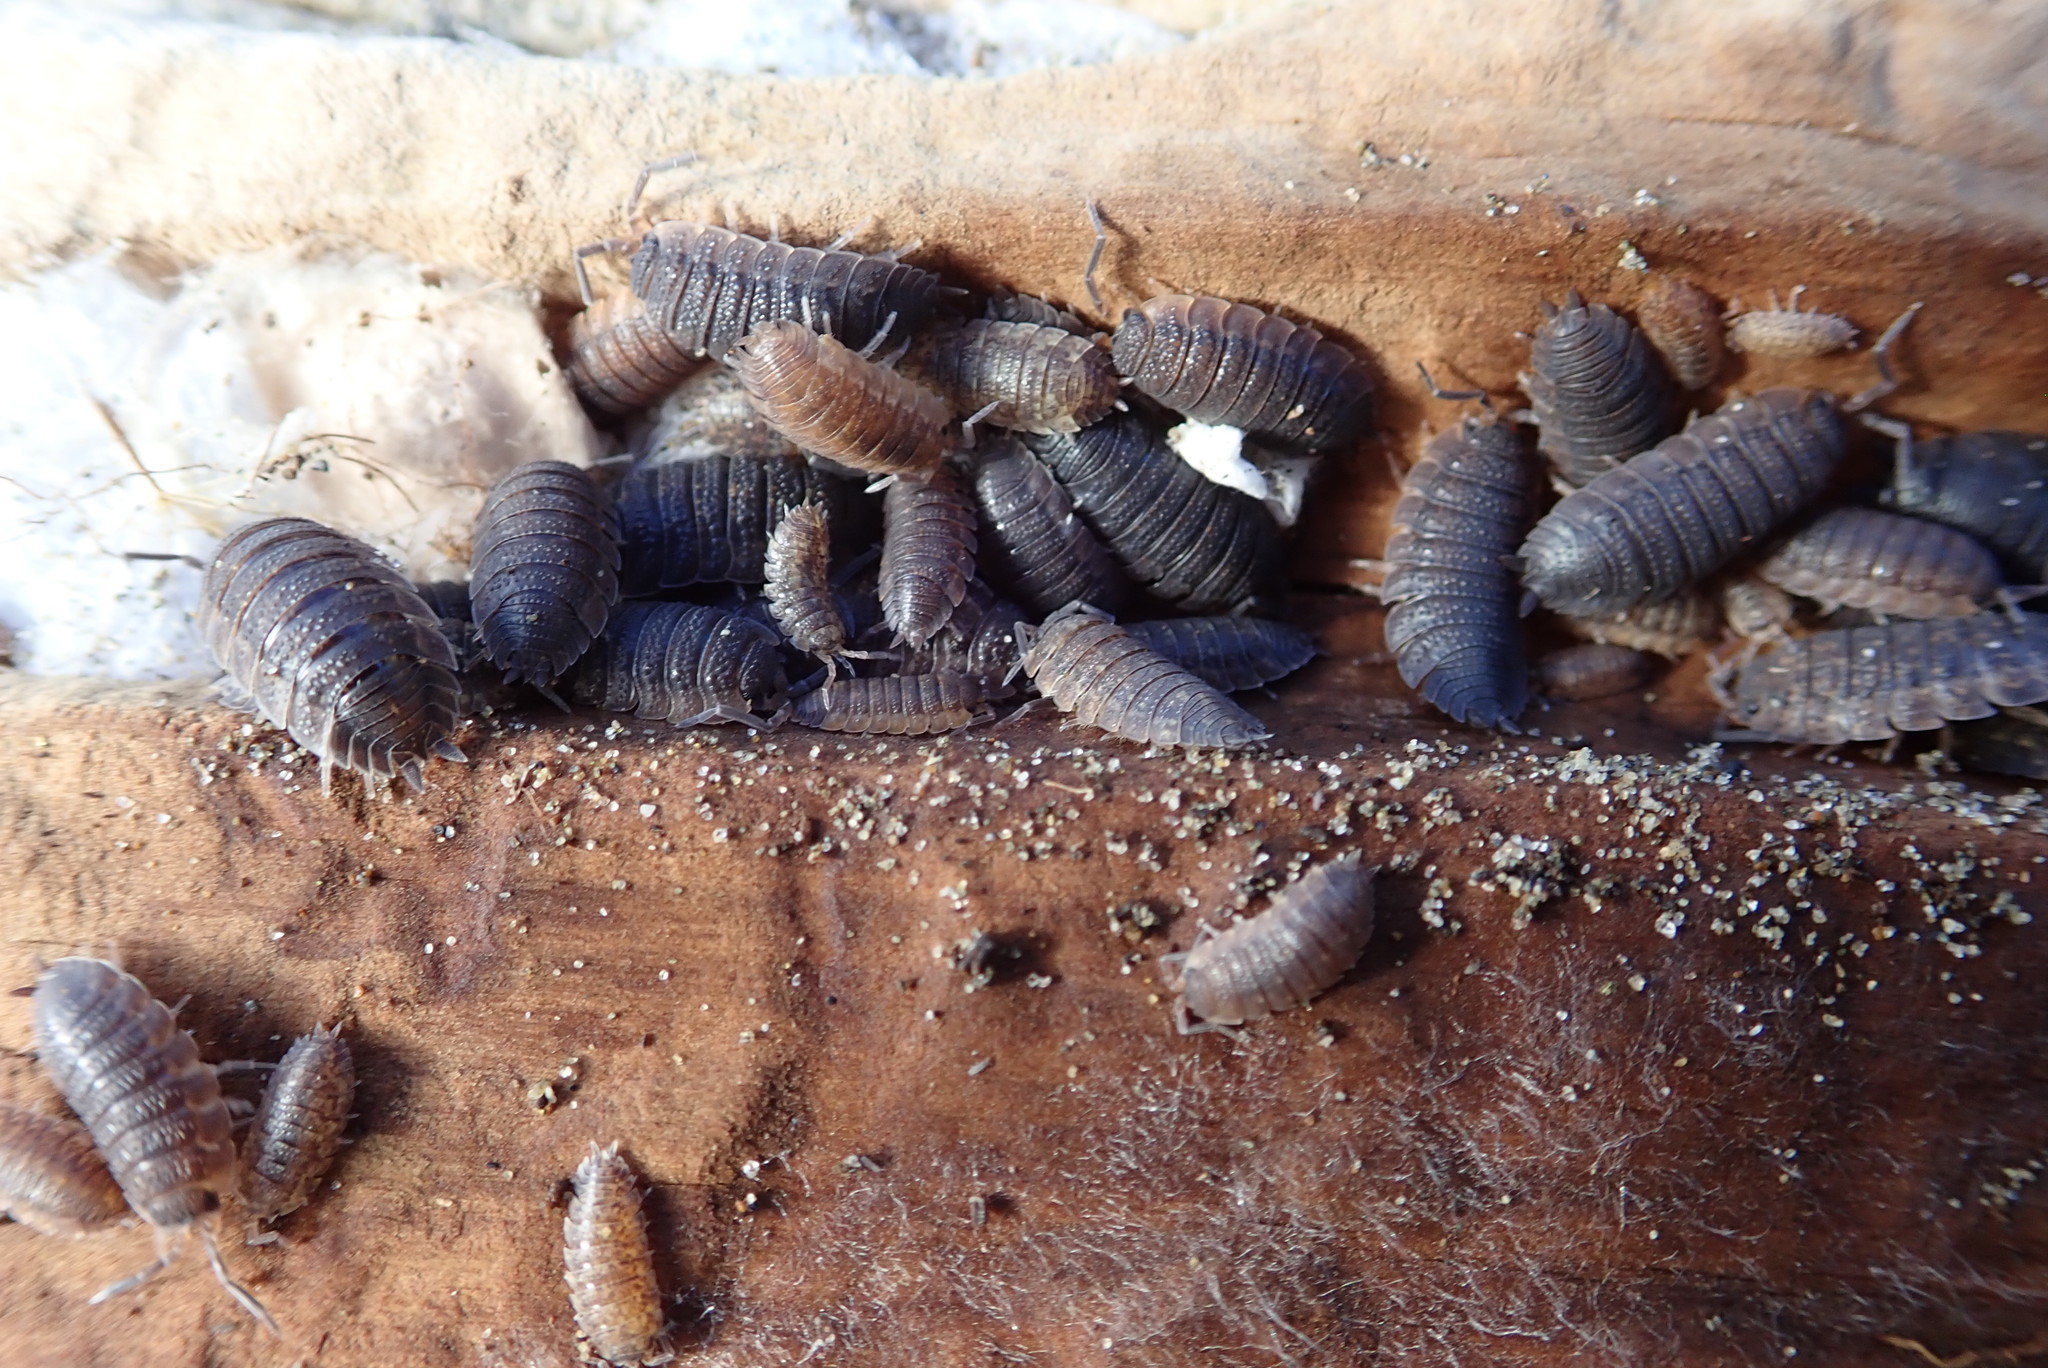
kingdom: Animalia
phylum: Arthropoda
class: Malacostraca
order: Isopoda
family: Porcellionidae
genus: Porcellio
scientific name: Porcellio scaber
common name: Common rough woodlouse
